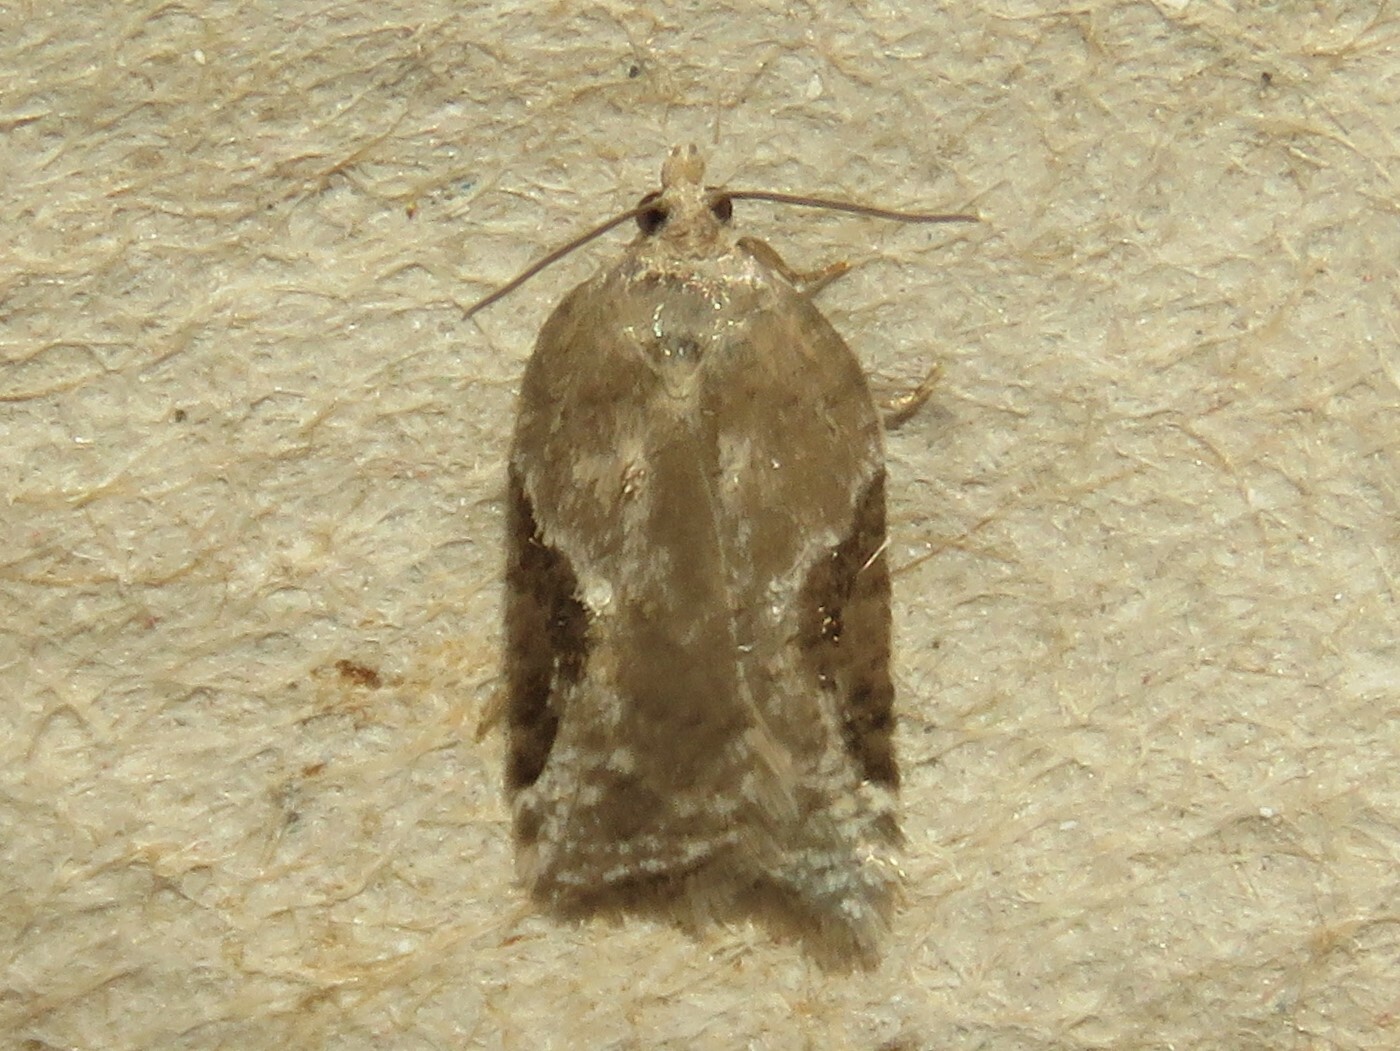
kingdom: Animalia
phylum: Arthropoda
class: Insecta
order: Lepidoptera
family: Tortricidae
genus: Acleris
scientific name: Acleris forbesana
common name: Forbes' acleris moth
